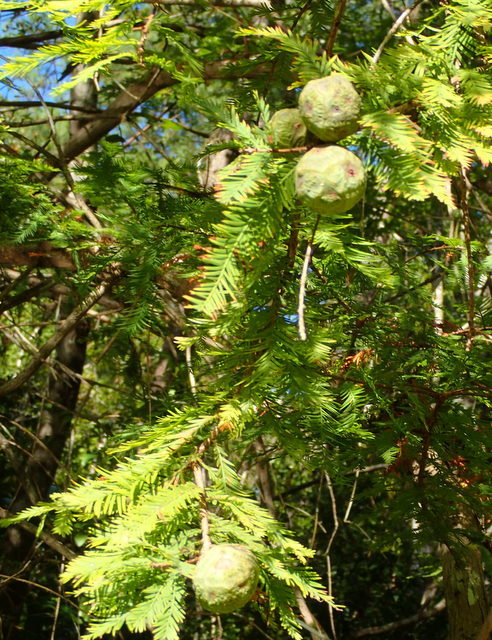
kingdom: Plantae
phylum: Tracheophyta
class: Pinopsida
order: Pinales
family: Cupressaceae
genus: Taxodium
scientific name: Taxodium distichum
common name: Bald cypress
